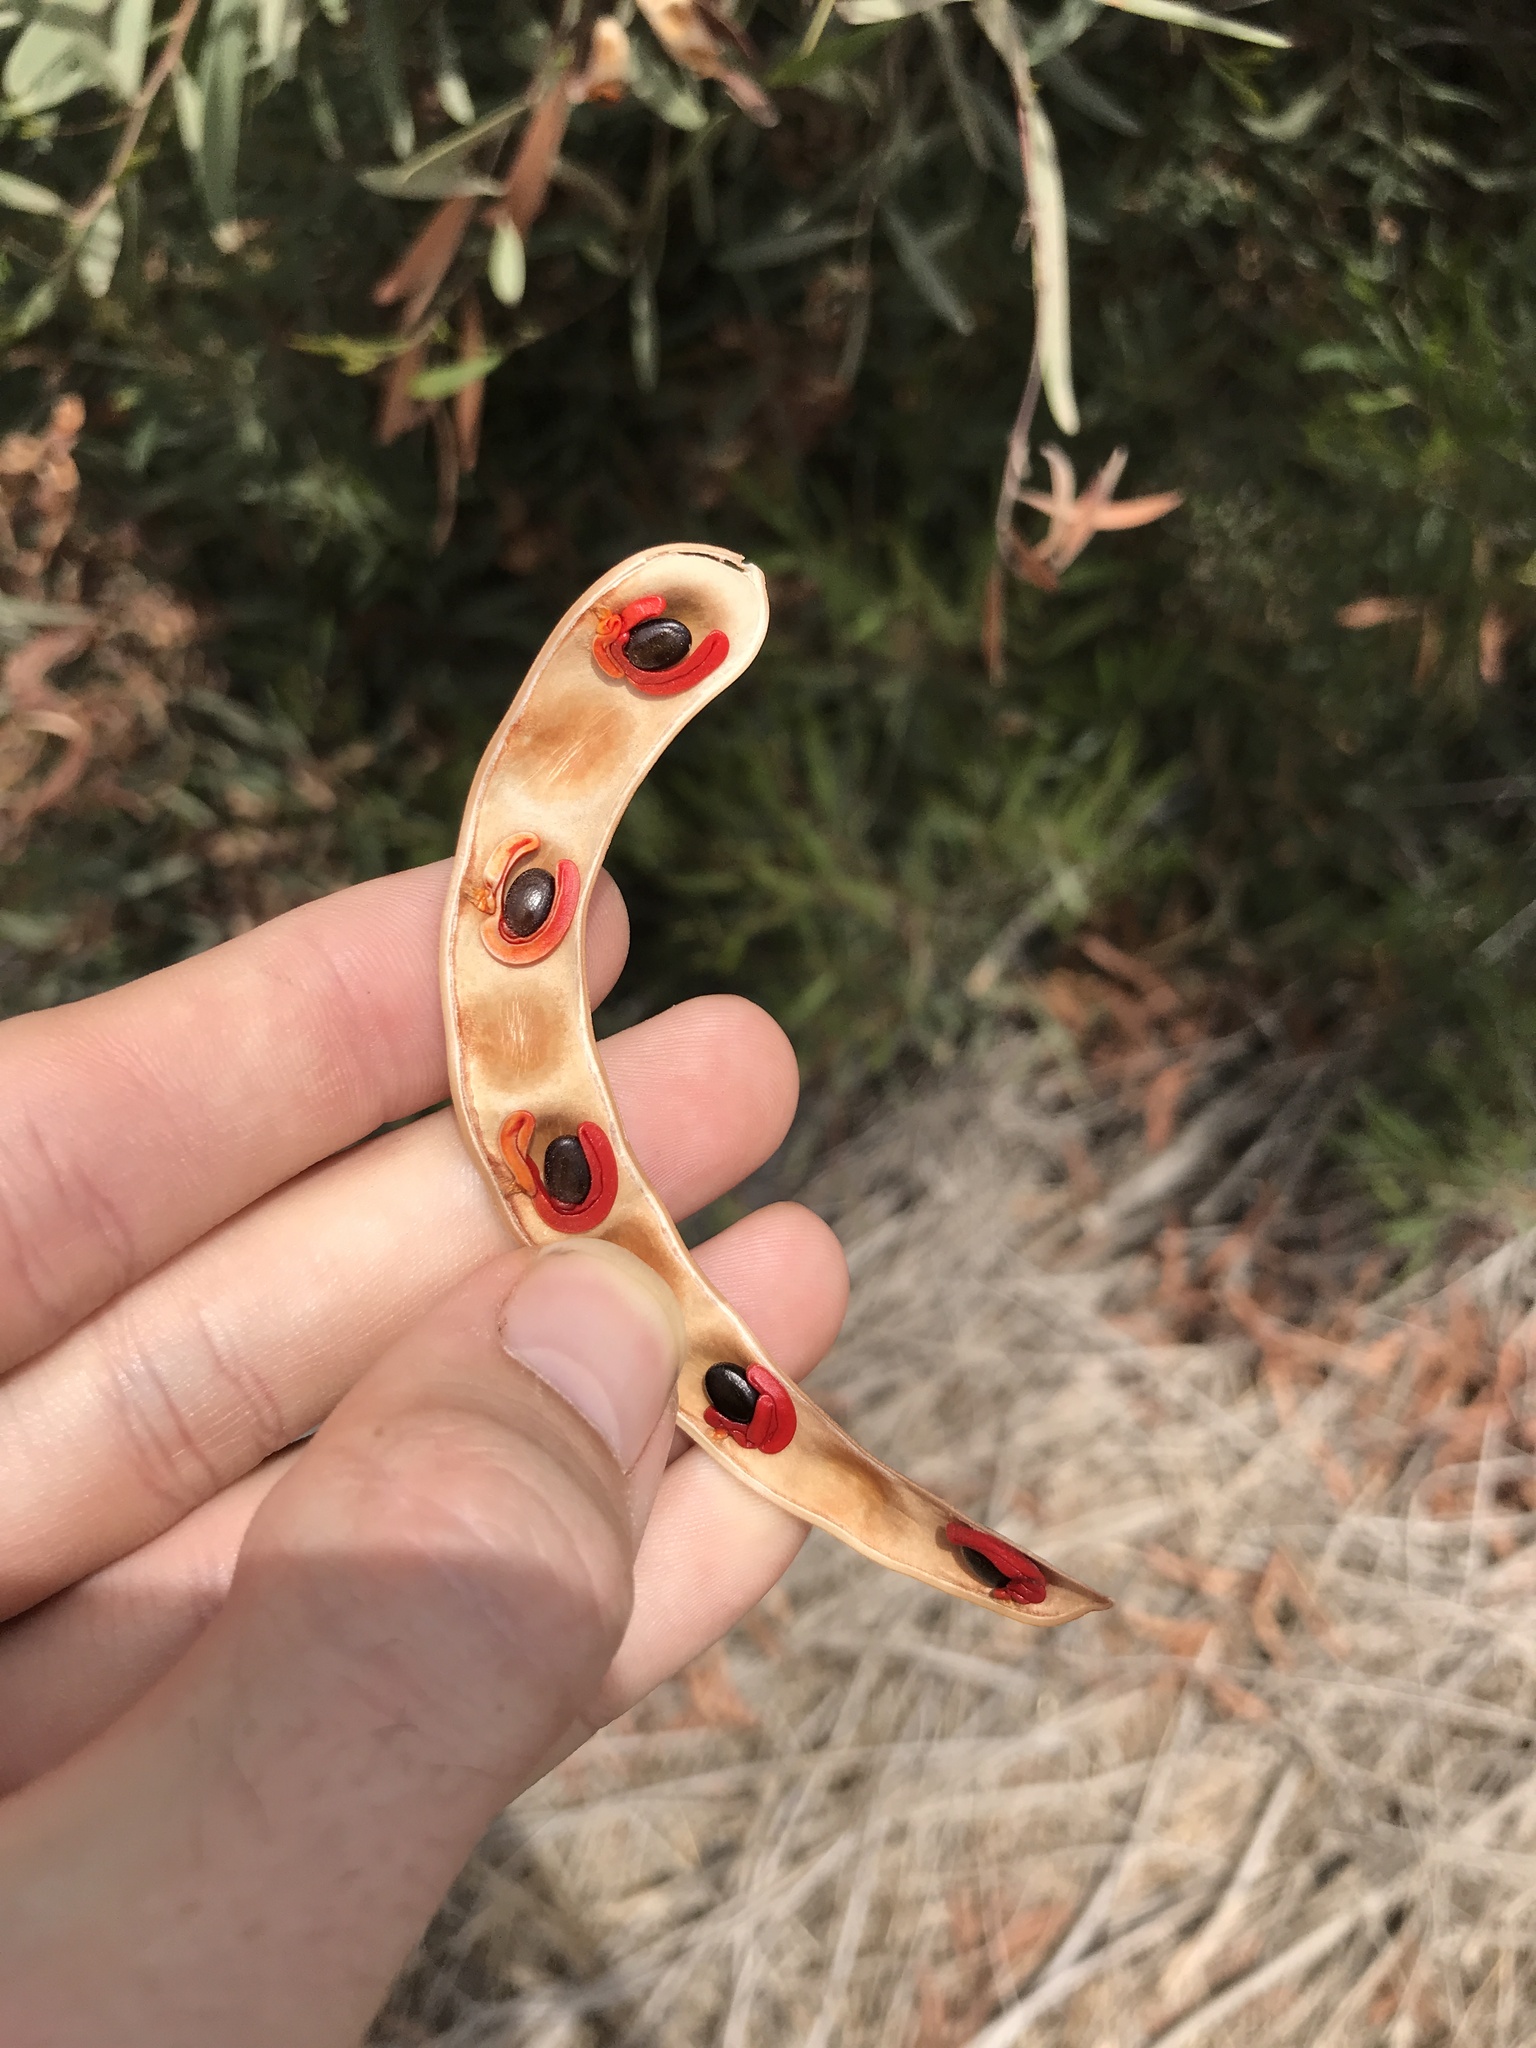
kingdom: Plantae
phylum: Tracheophyta
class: Magnoliopsida
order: Fabales
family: Fabaceae
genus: Acacia
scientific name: Acacia cyclops
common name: Coastal wattle
